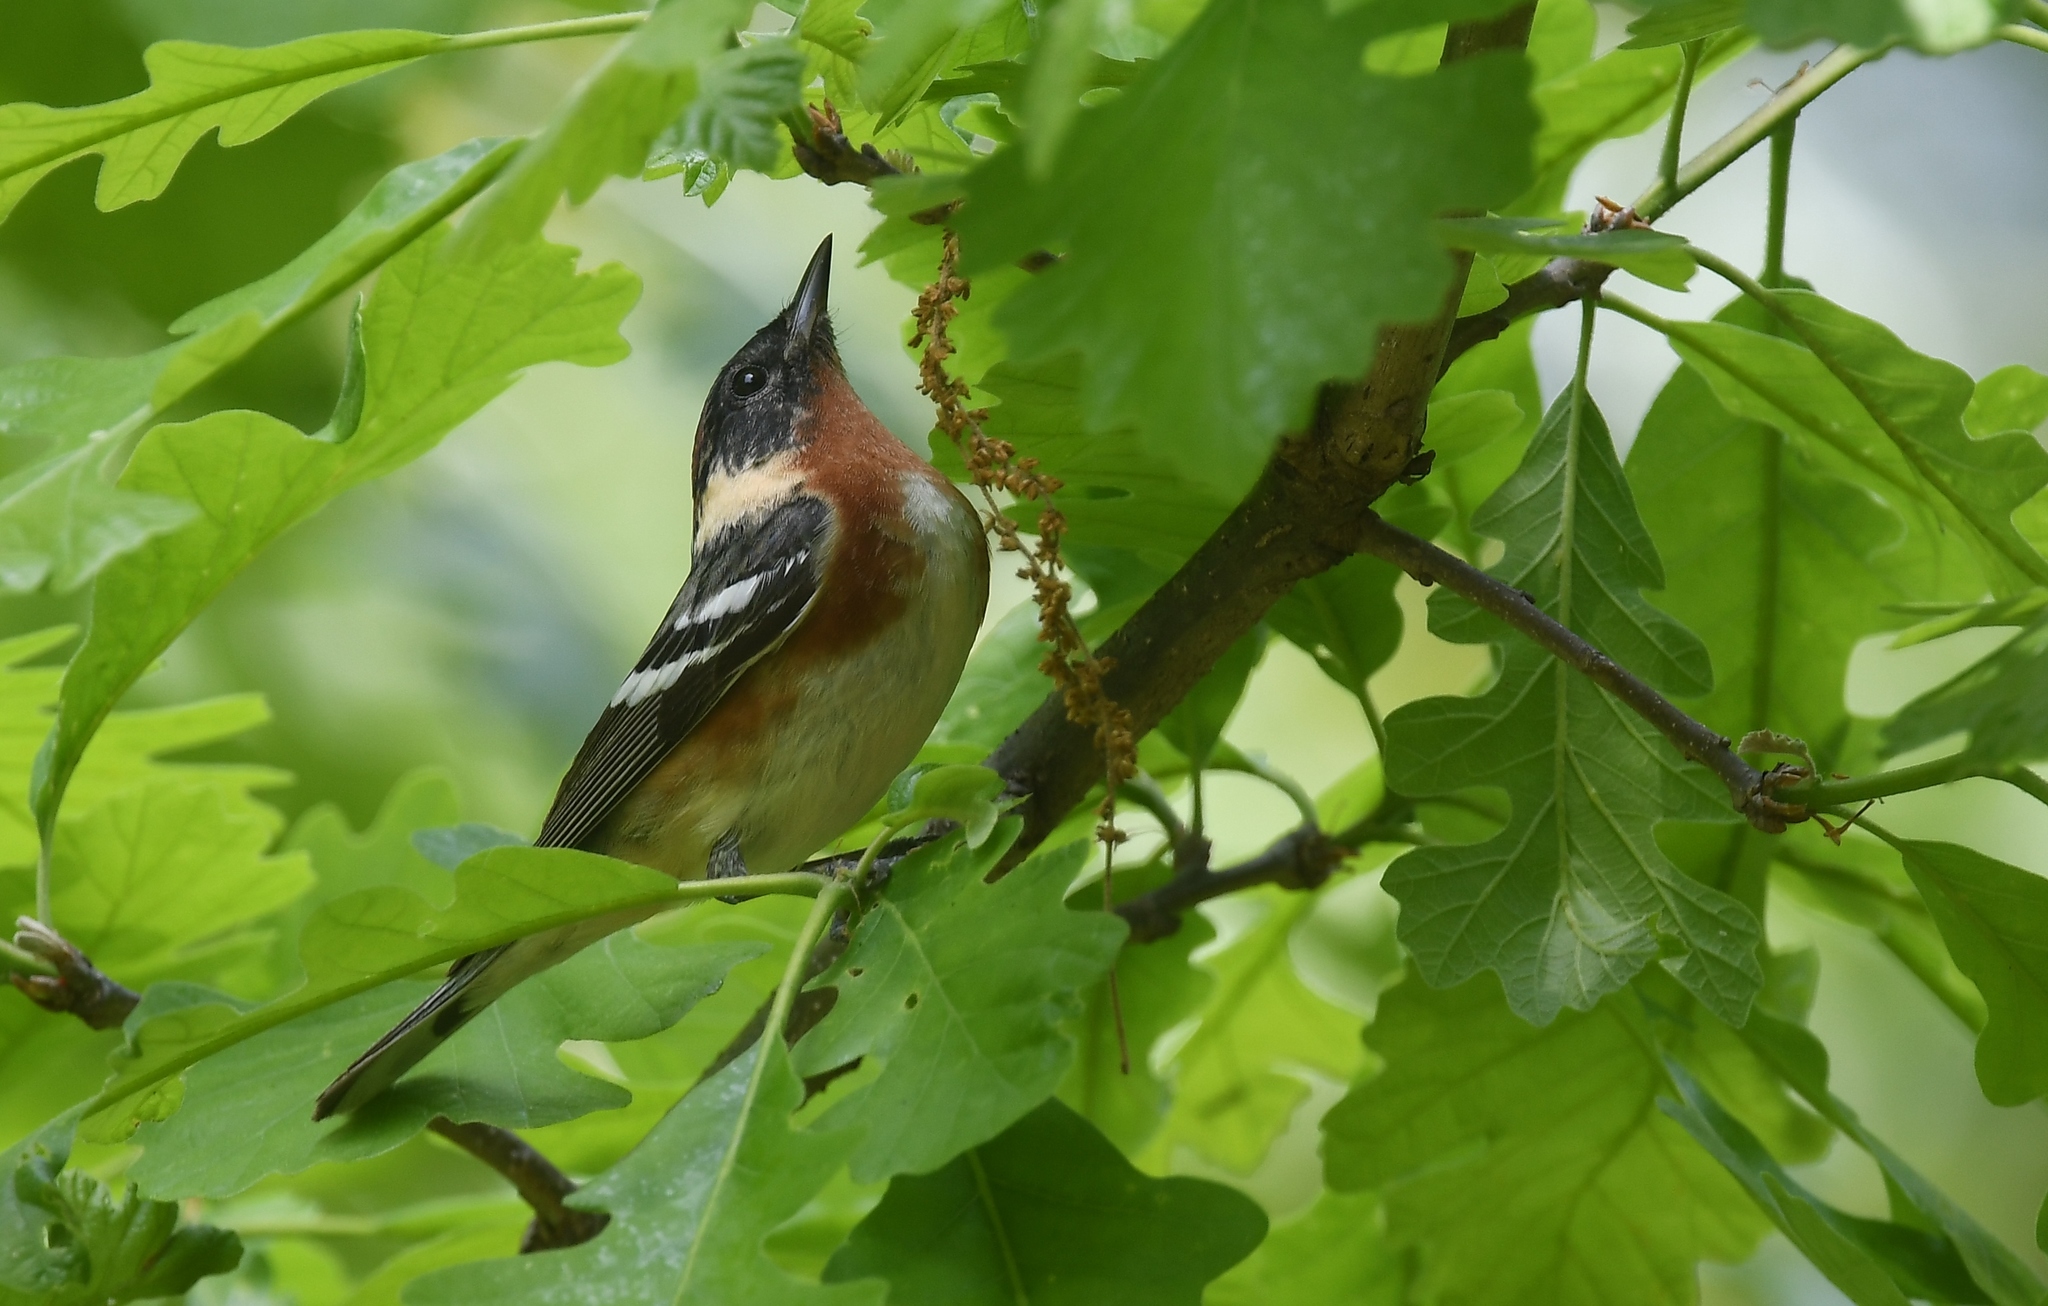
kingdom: Animalia
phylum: Chordata
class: Aves
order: Passeriformes
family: Parulidae
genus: Setophaga
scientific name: Setophaga castanea
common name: Bay-breasted warbler
